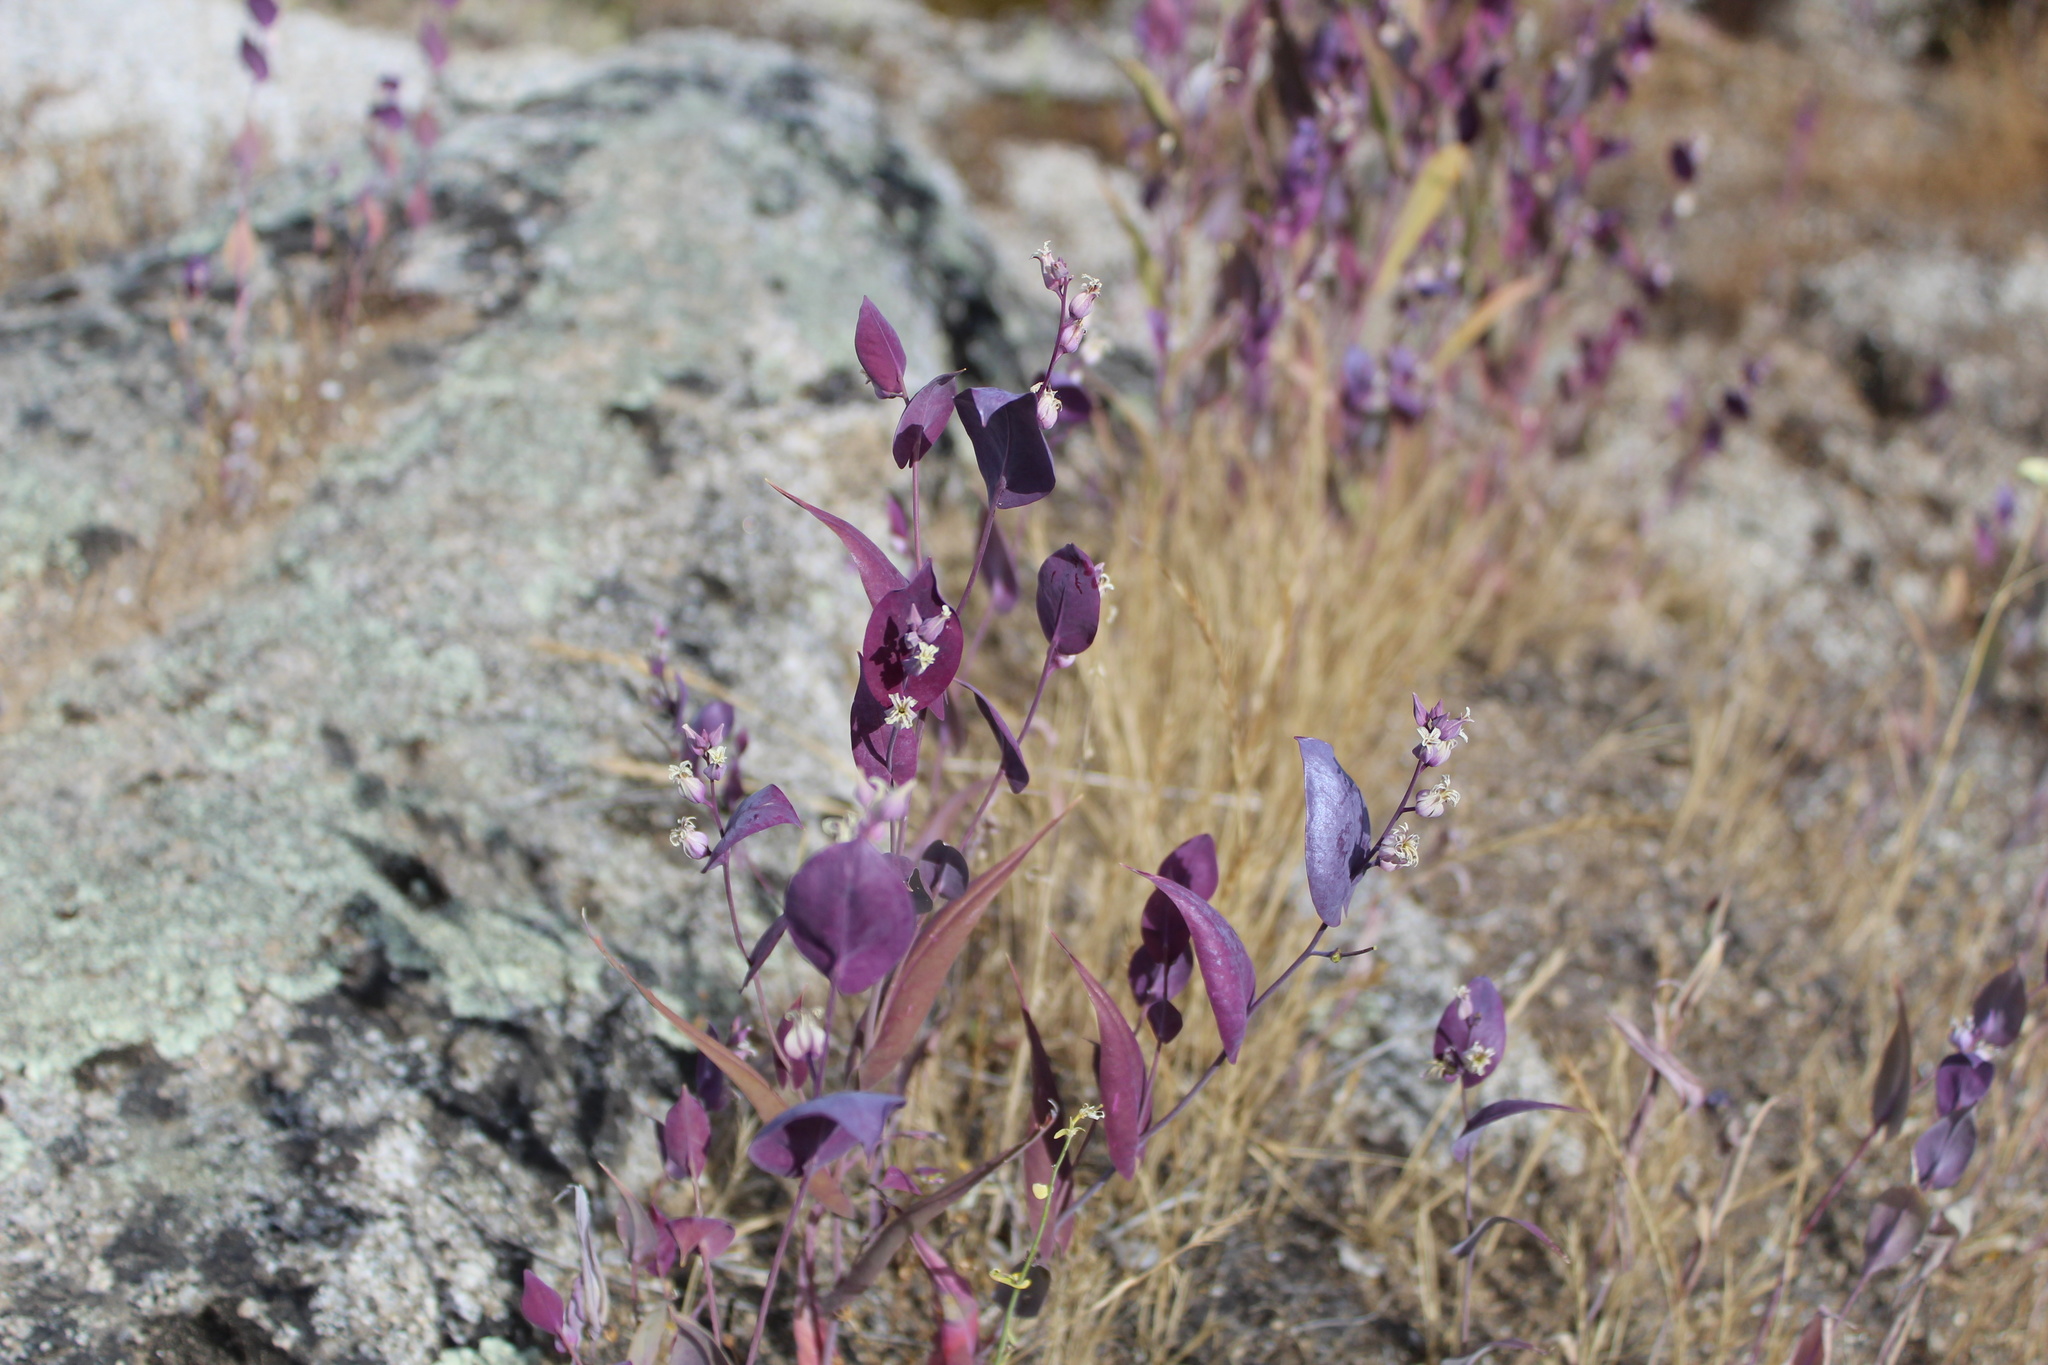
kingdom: Plantae
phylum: Tracheophyta
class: Magnoliopsida
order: Brassicales
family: Brassicaceae
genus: Streptanthus
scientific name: Streptanthus farnsworthianus
